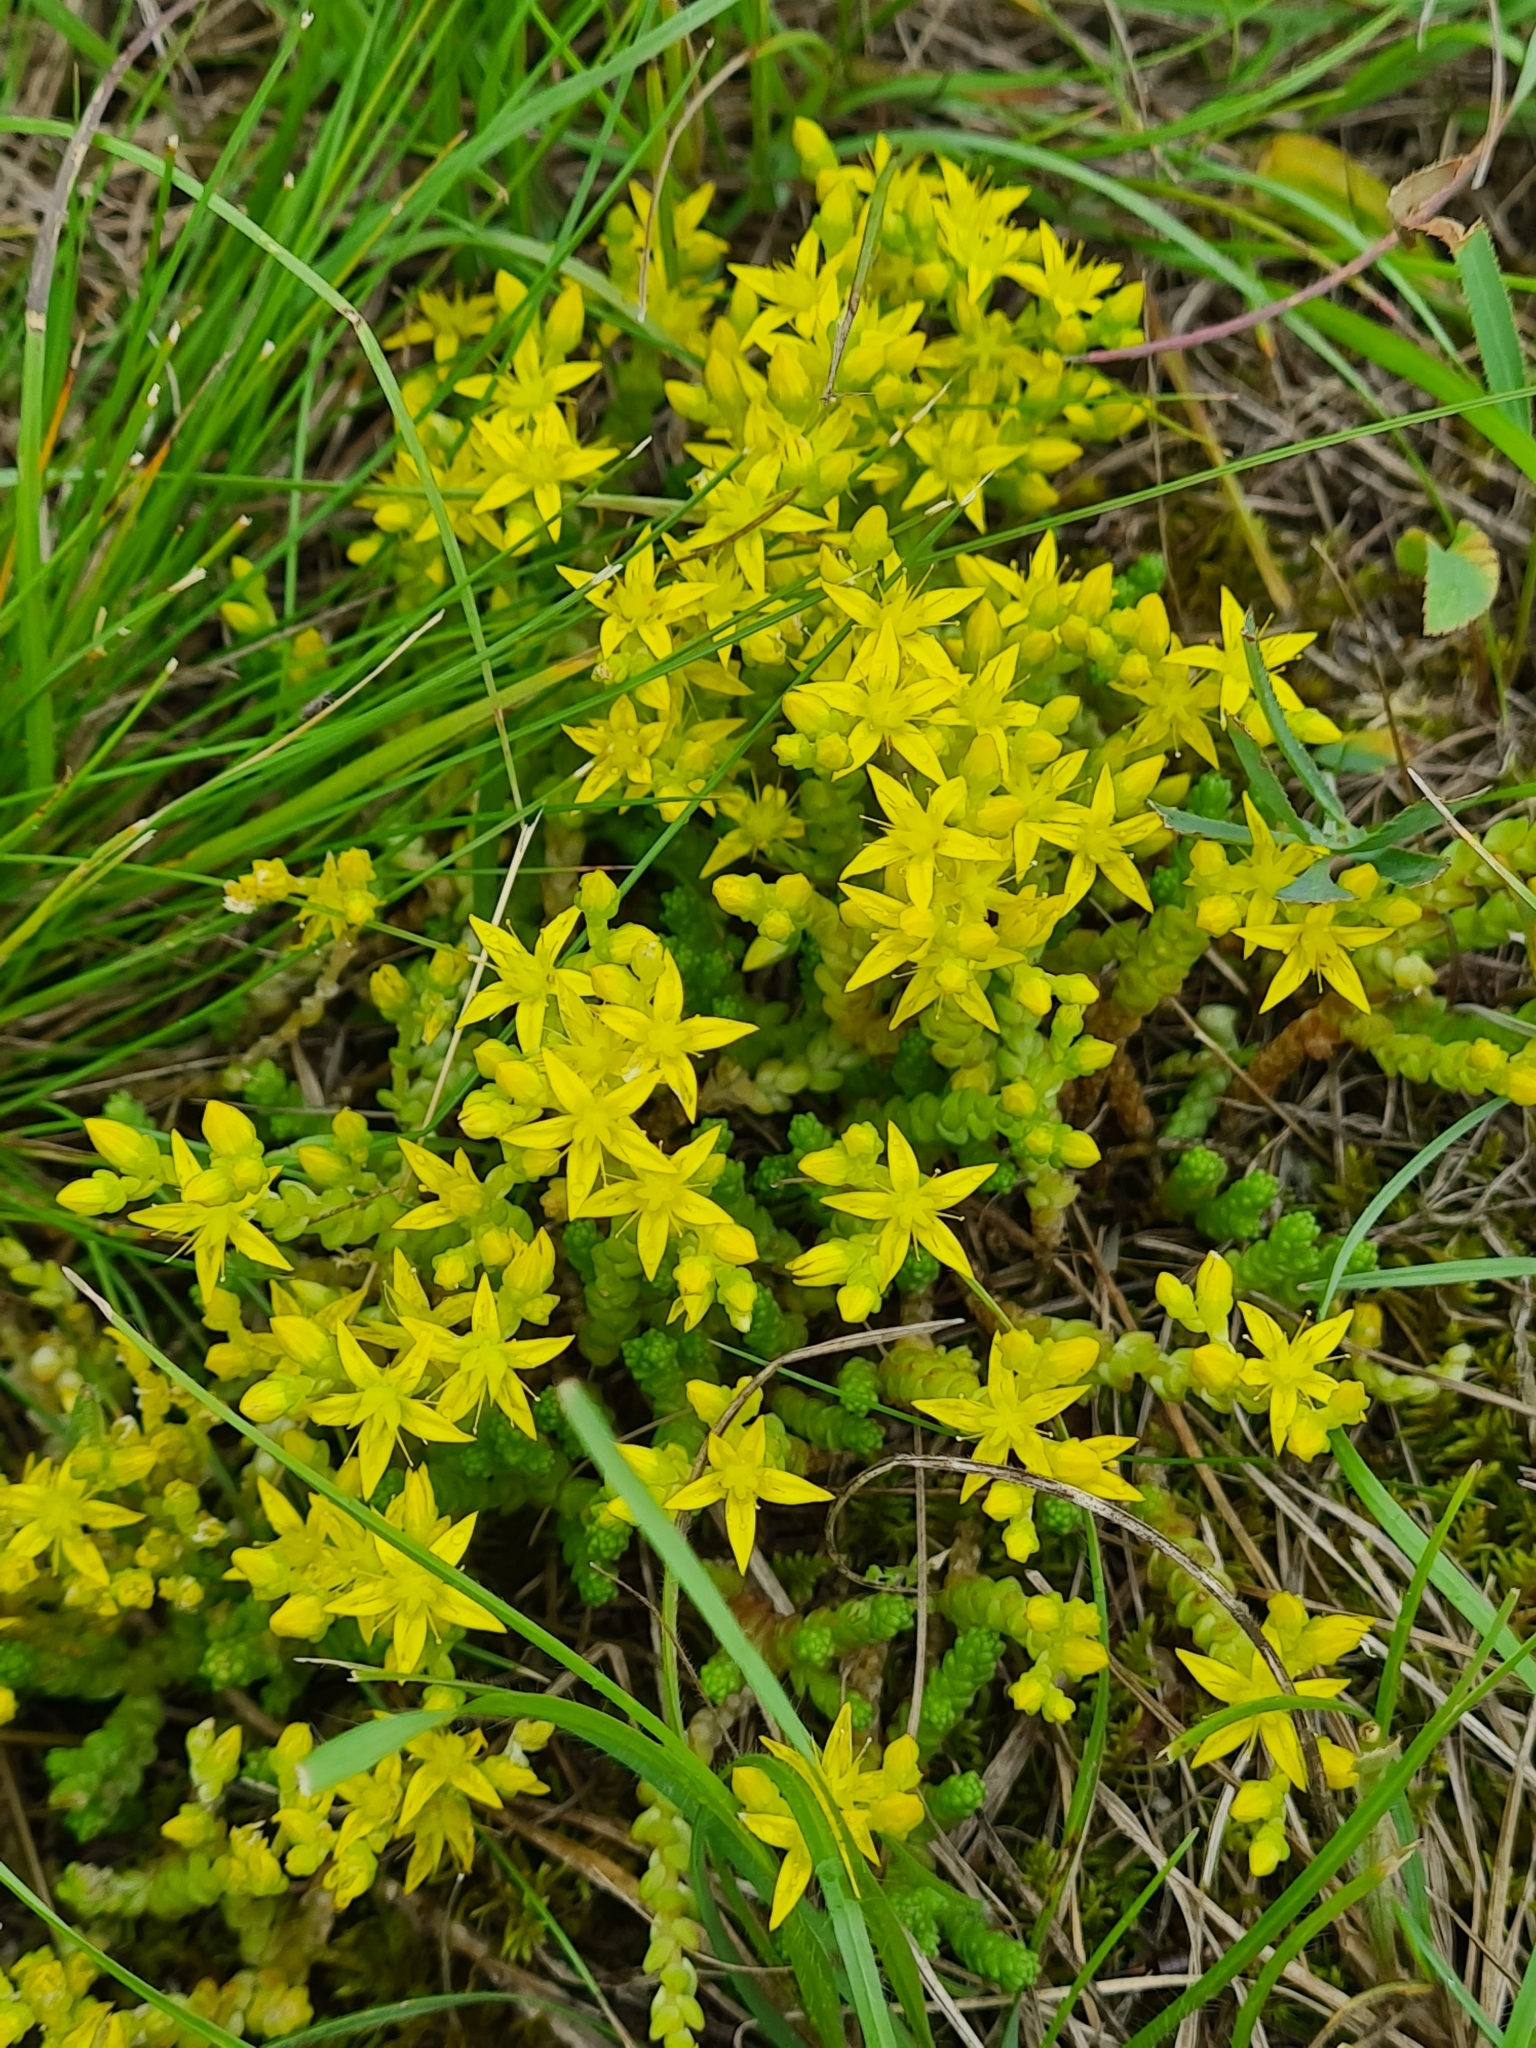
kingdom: Plantae
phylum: Tracheophyta
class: Magnoliopsida
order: Saxifragales
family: Crassulaceae
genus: Sedum
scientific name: Sedum acre
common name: Biting stonecrop
